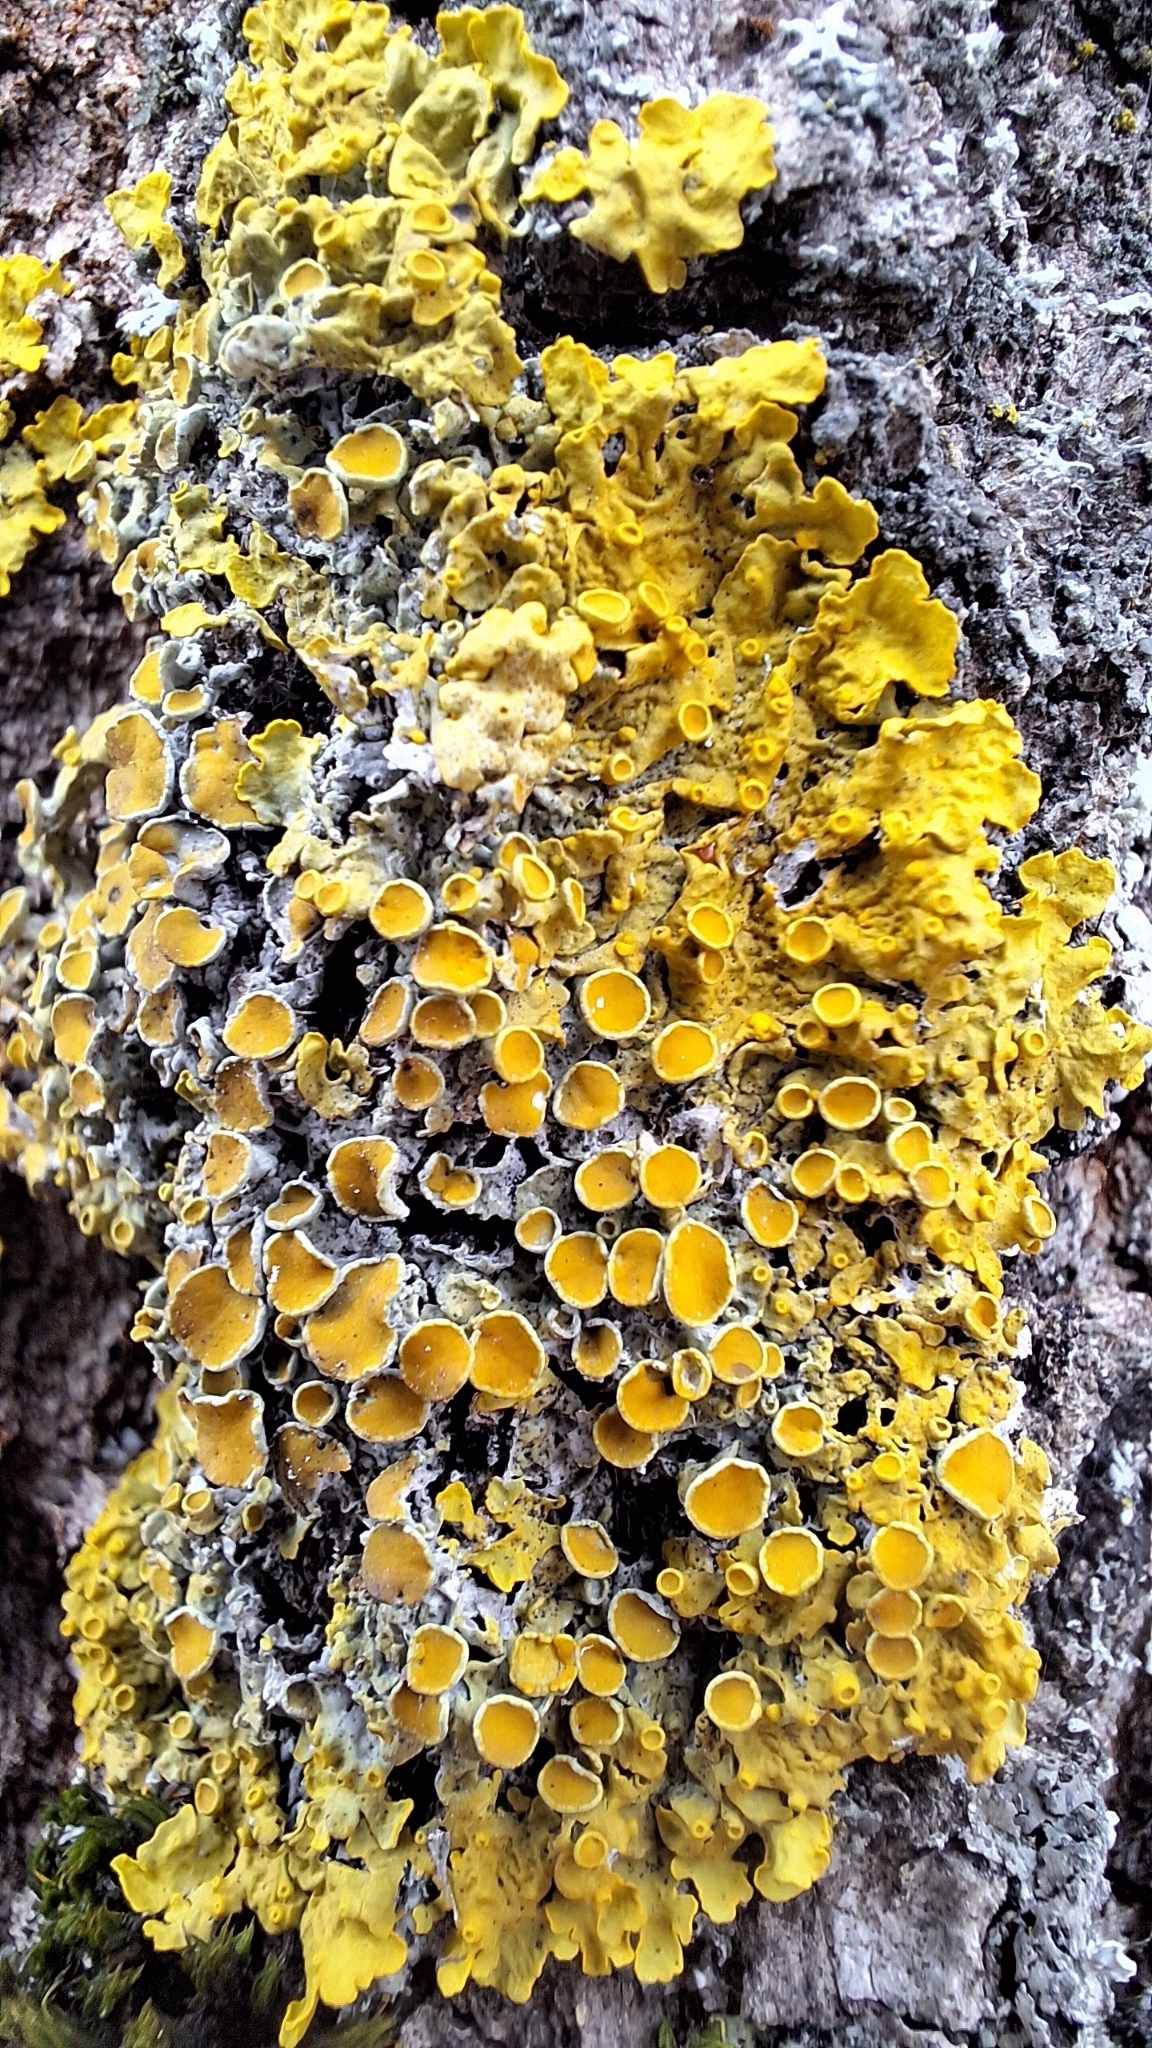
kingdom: Fungi
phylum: Ascomycota
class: Lecanoromycetes
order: Teloschistales
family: Teloschistaceae
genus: Xanthoria
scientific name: Xanthoria parietina
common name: Common orange lichen
